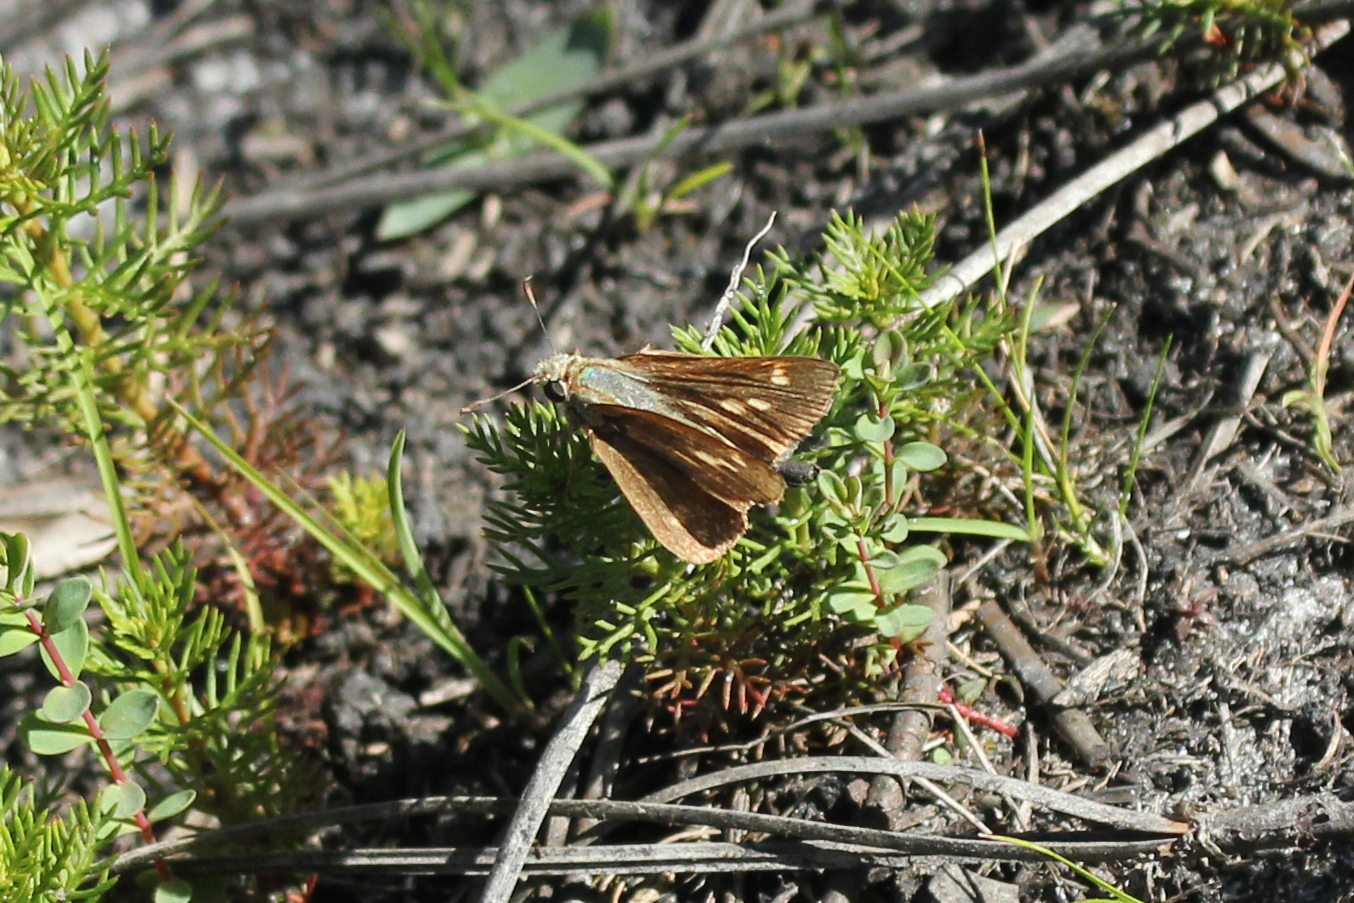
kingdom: Animalia
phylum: Arthropoda
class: Insecta
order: Lepidoptera
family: Hesperiidae
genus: Polites
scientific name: Polites otho
